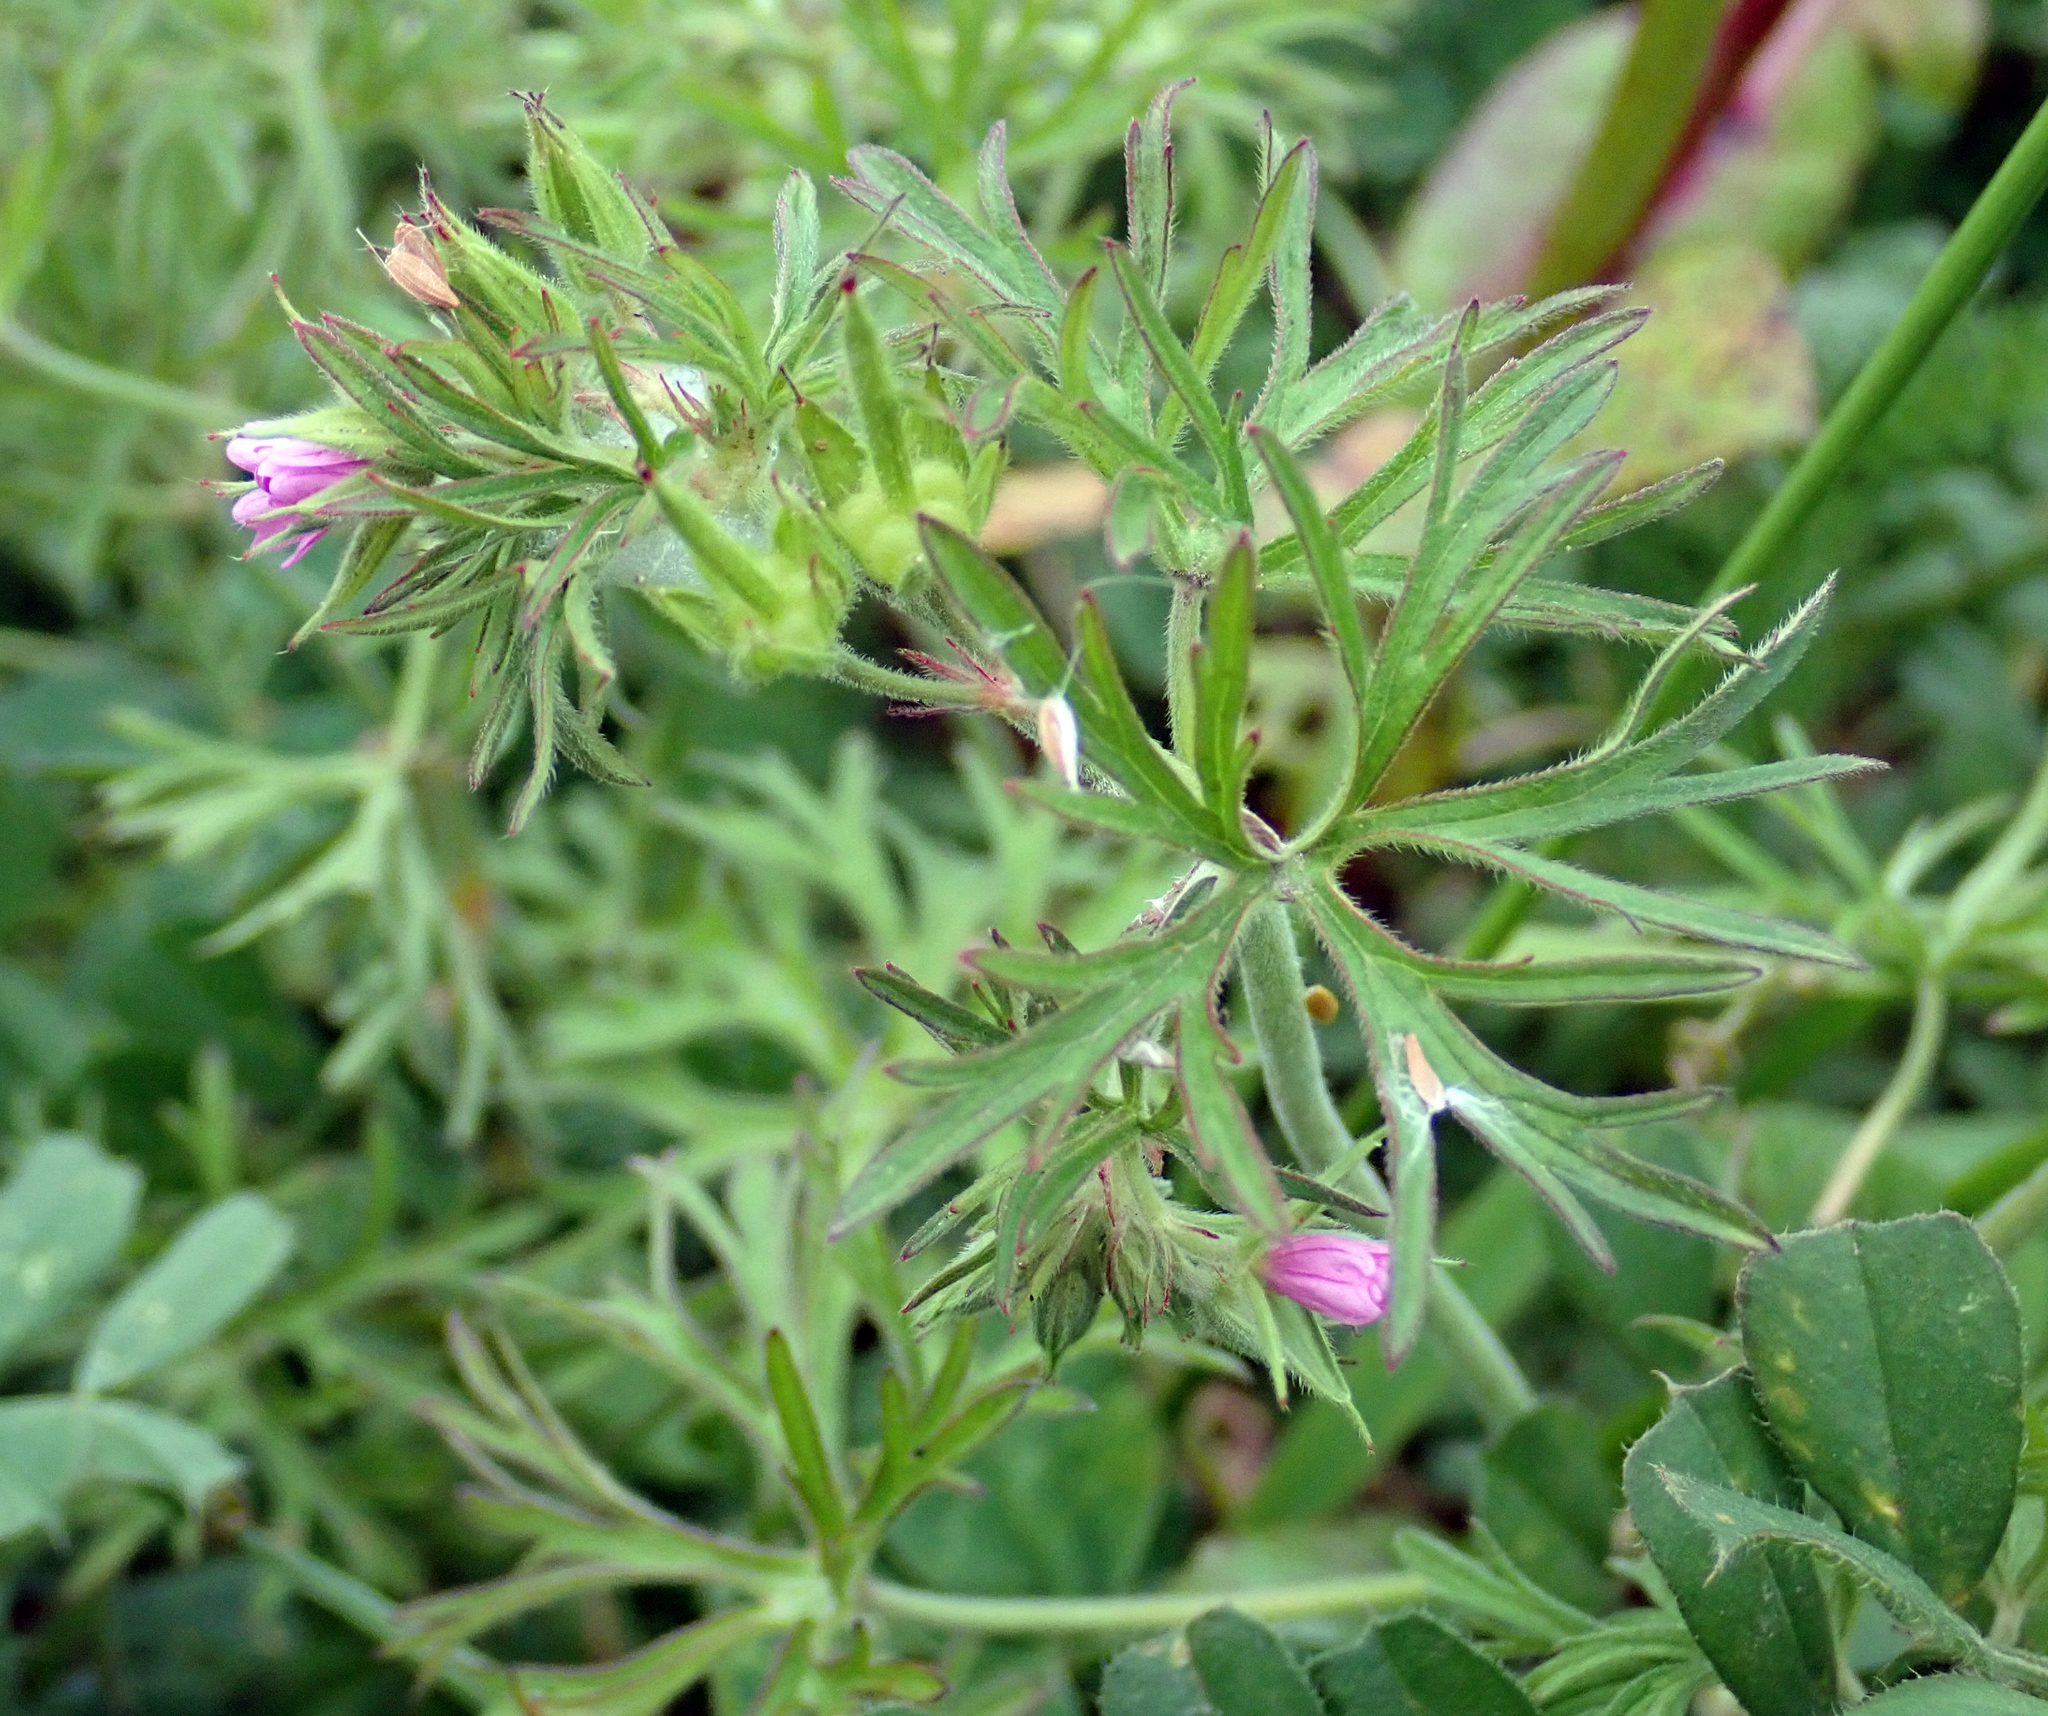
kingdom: Plantae
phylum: Tracheophyta
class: Magnoliopsida
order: Geraniales
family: Geraniaceae
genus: Geranium
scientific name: Geranium dissectum
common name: Cut-leaved crane's-bill
